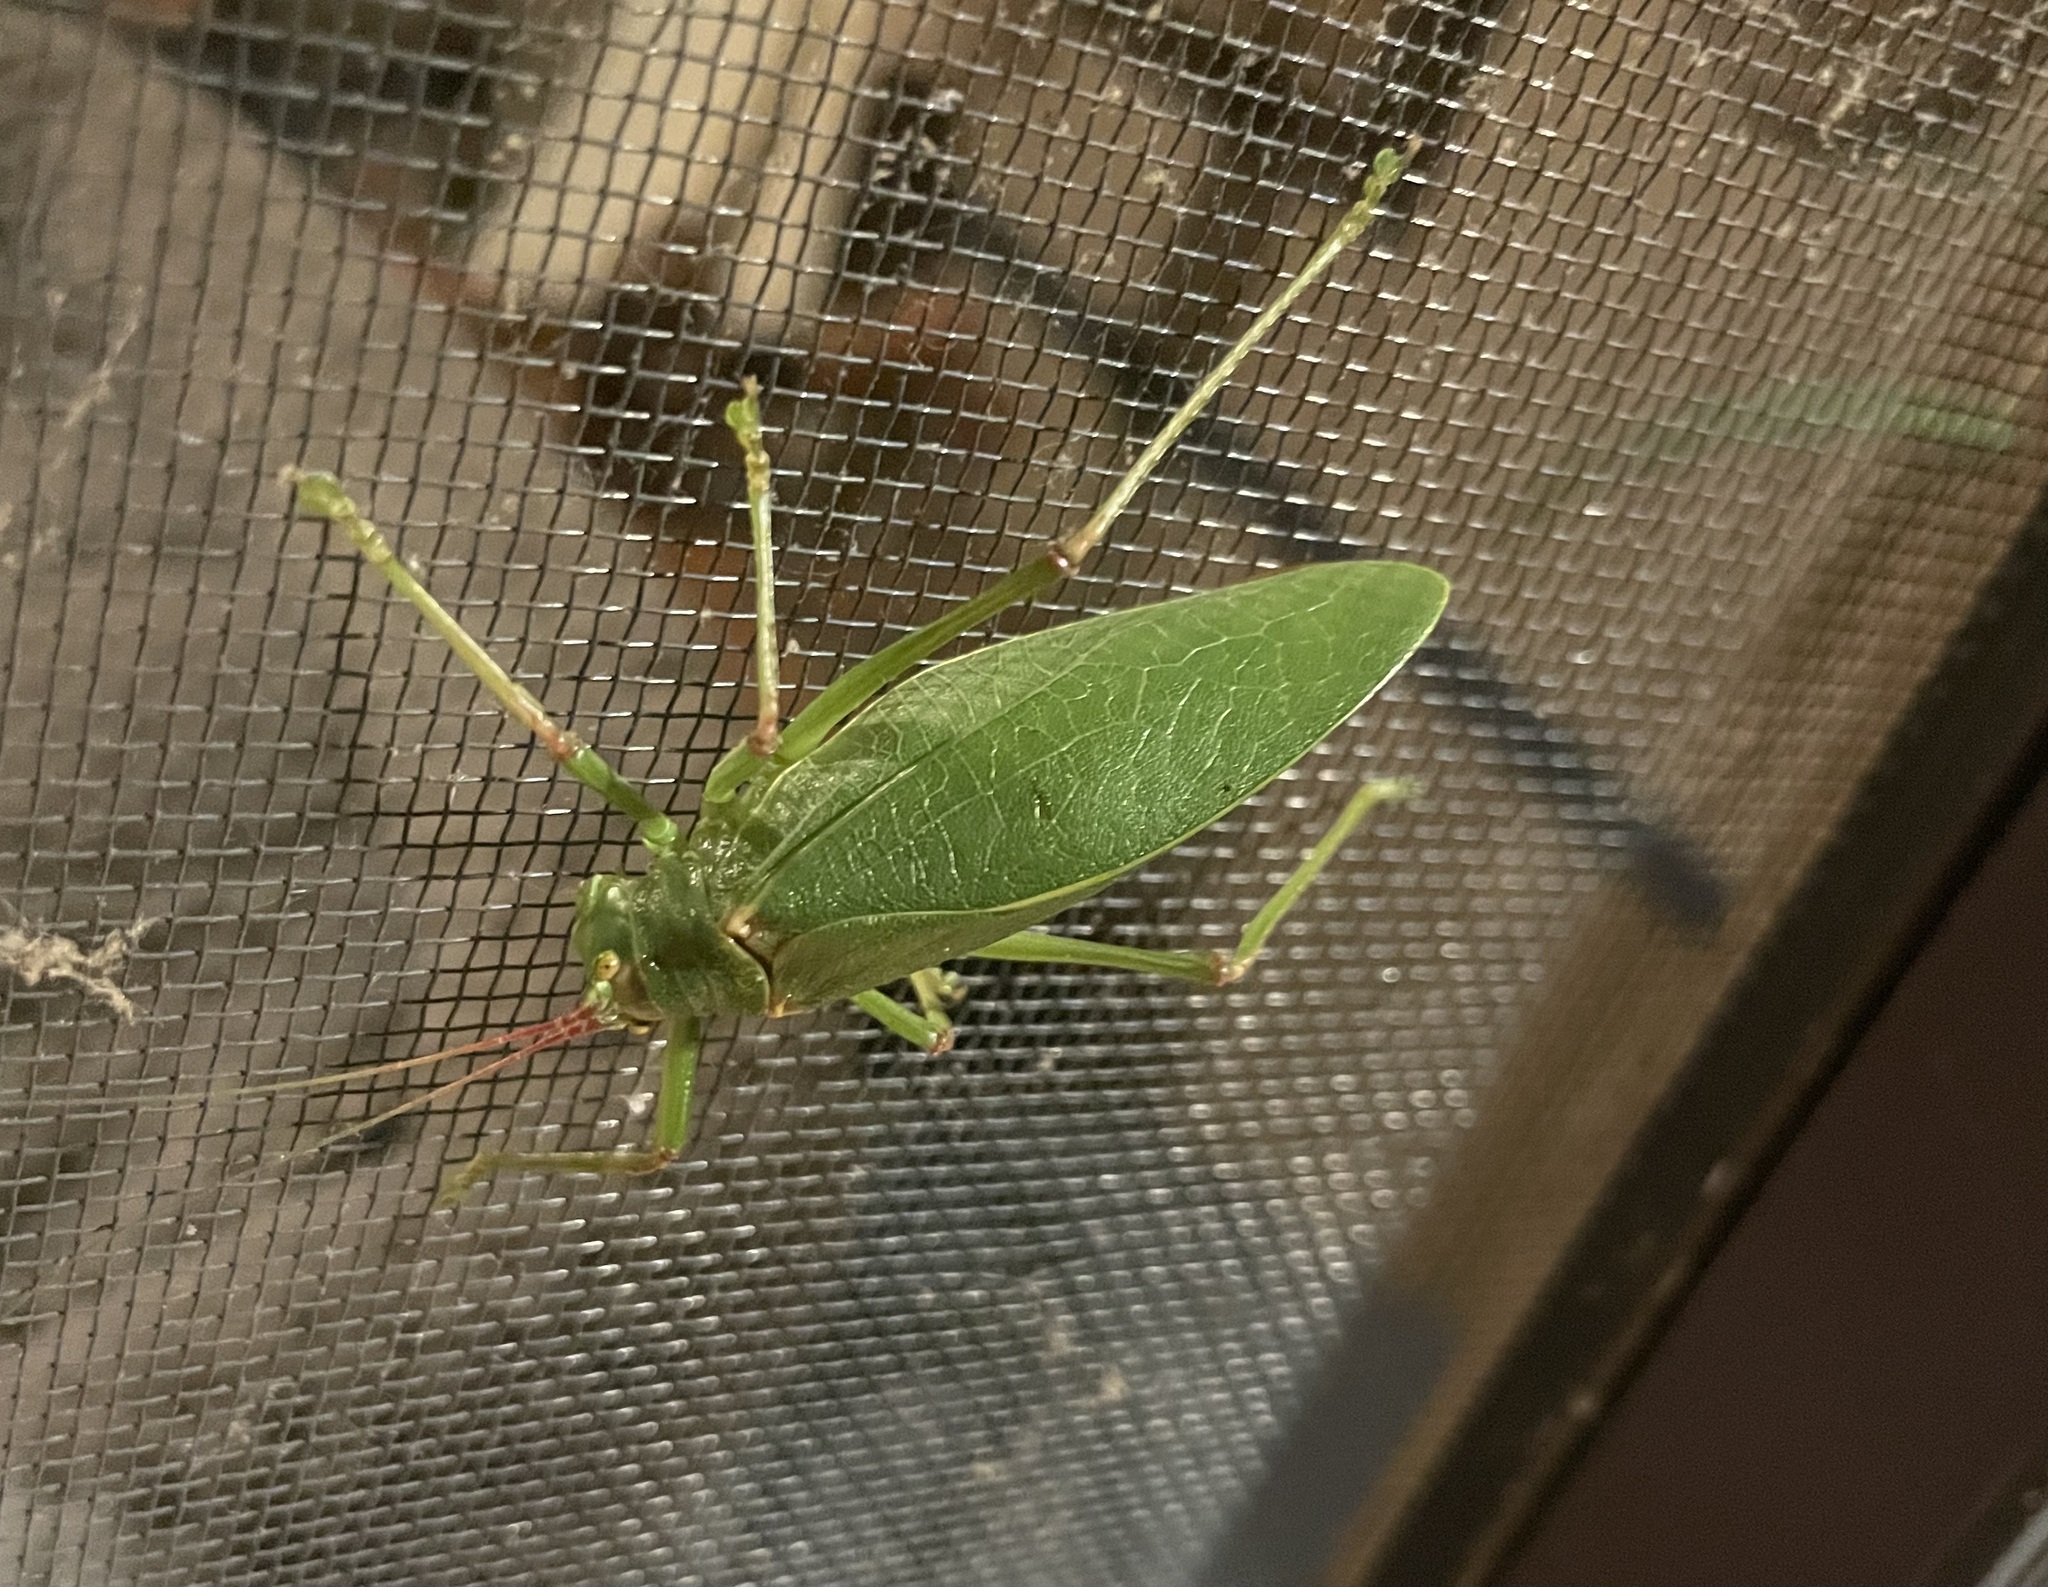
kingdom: Animalia
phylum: Arthropoda
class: Insecta
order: Orthoptera
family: Tettigoniidae
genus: Pterophylla
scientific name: Pterophylla camellifolia
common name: Common true katydid
